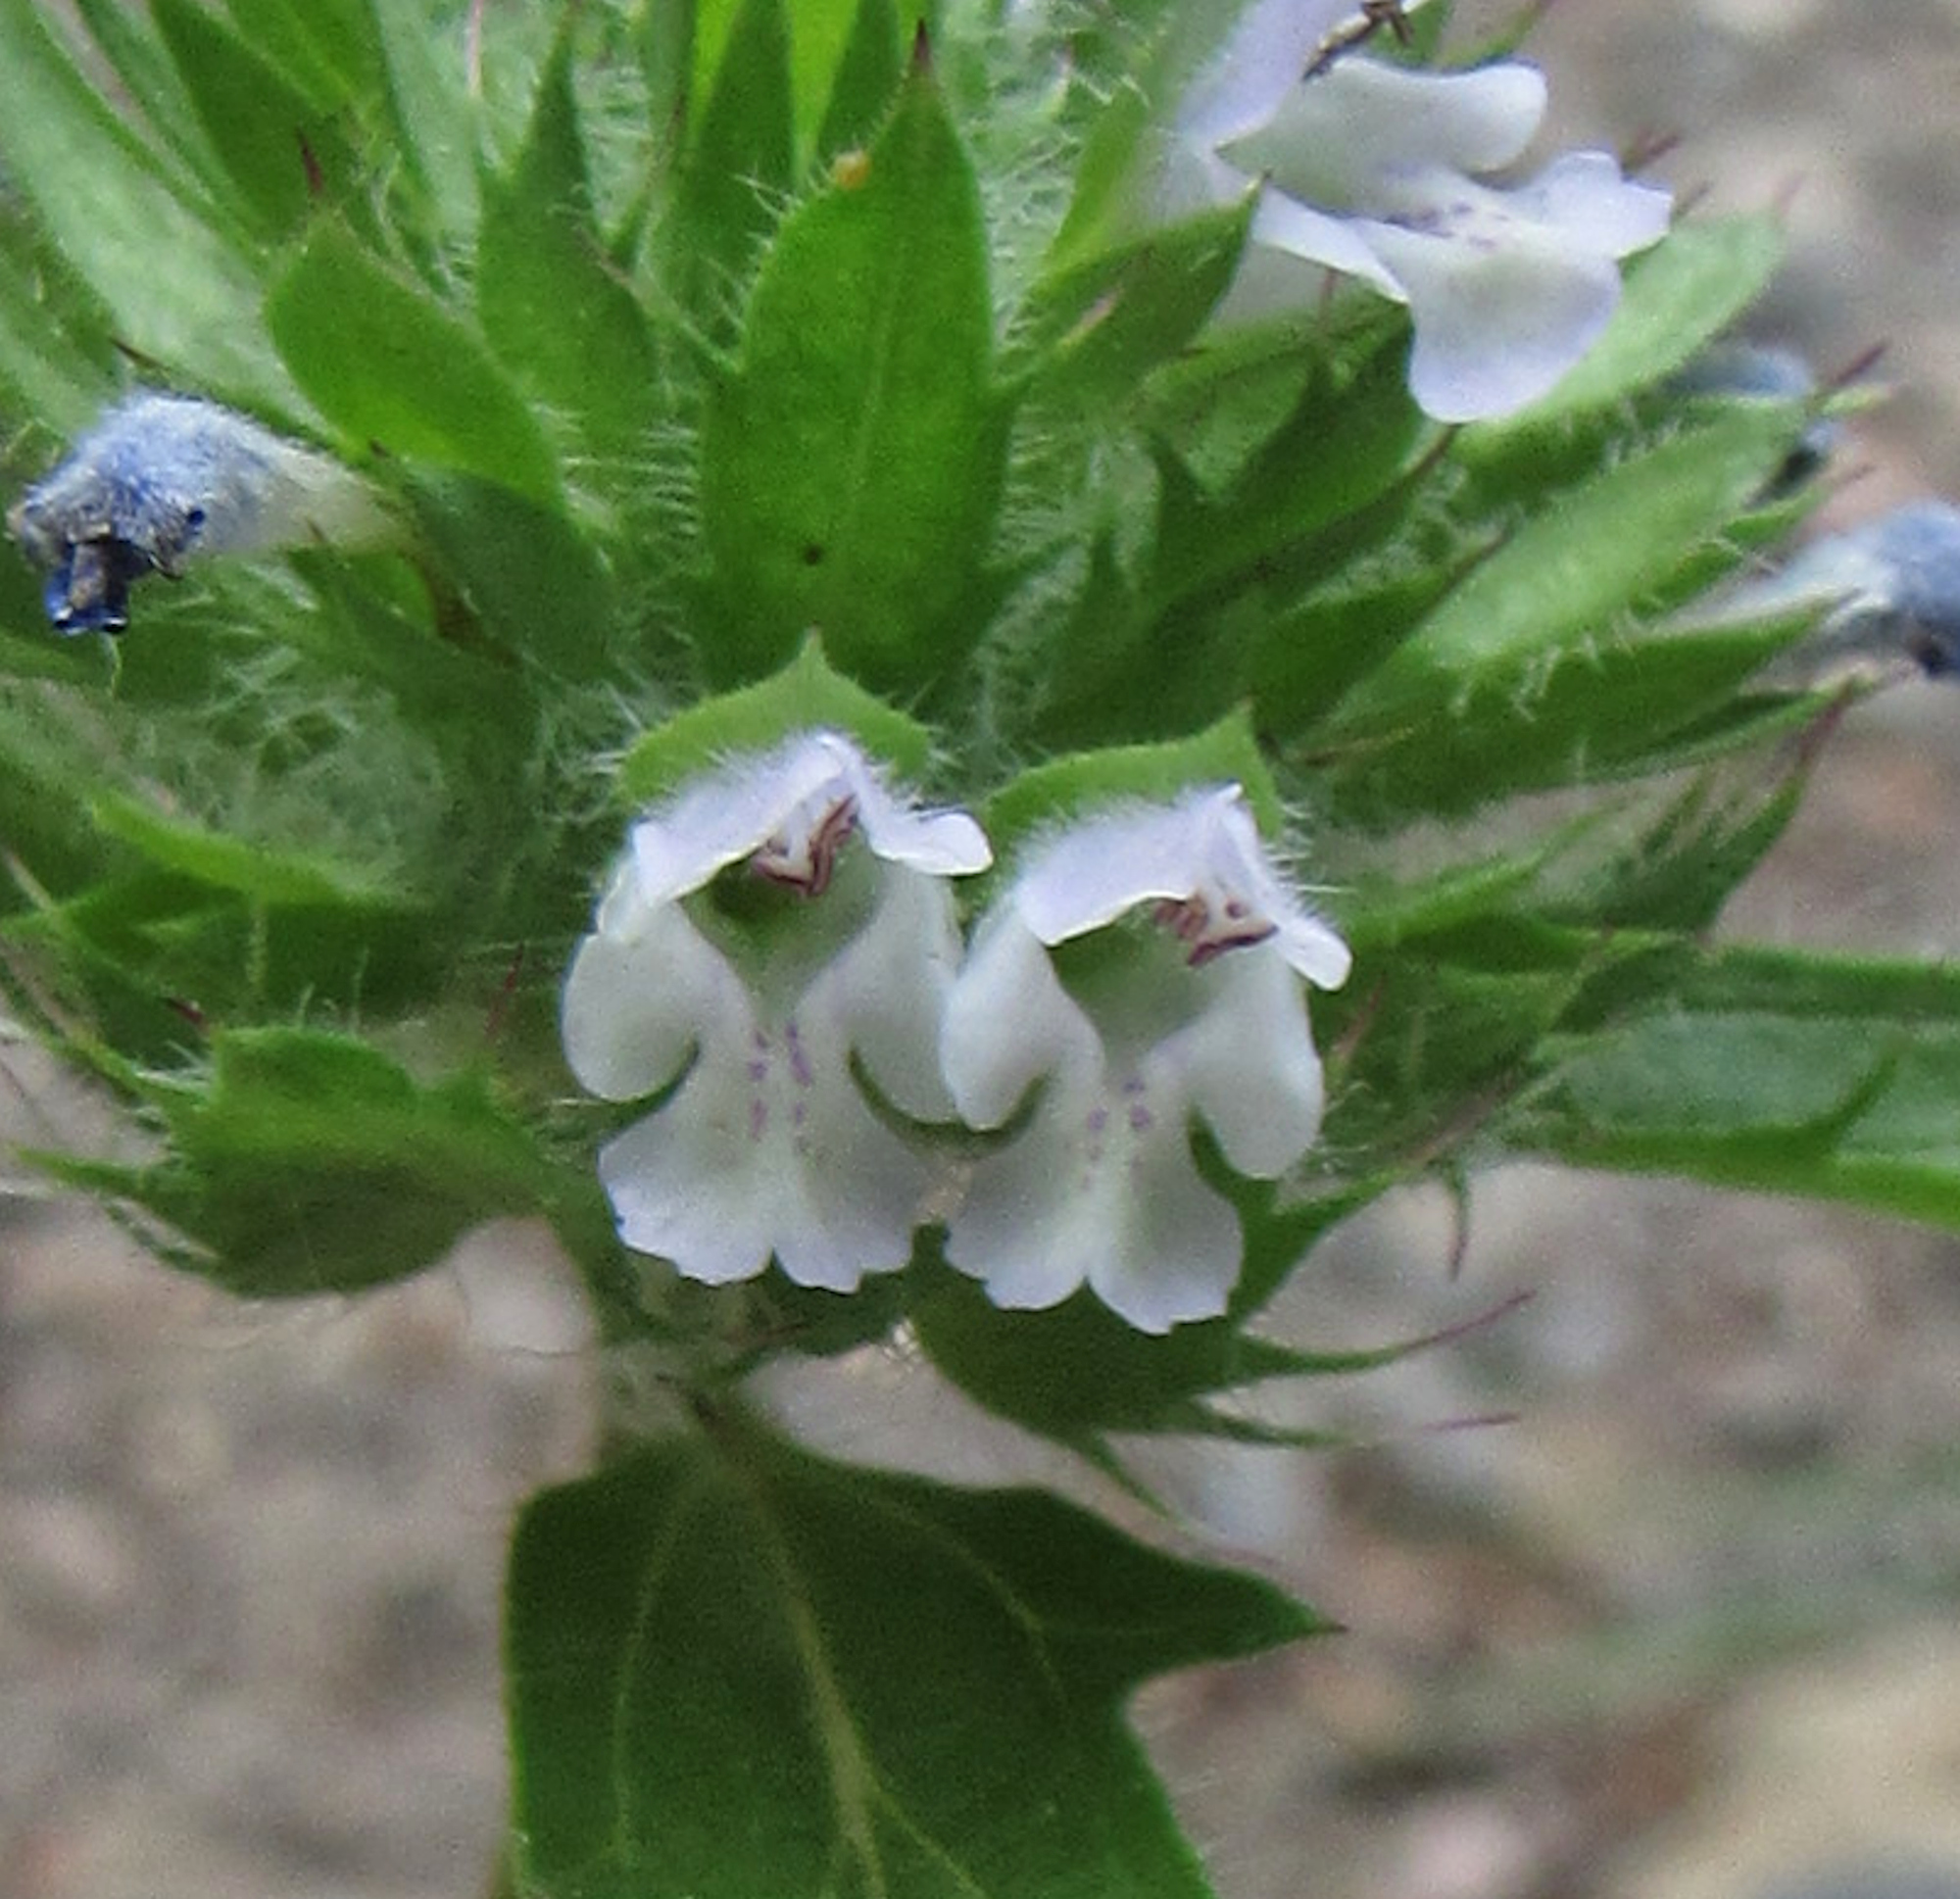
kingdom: Plantae
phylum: Tracheophyta
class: Magnoliopsida
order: Lamiales
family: Lamiaceae
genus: Dracocephalum
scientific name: Dracocephalum parviflorum
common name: American dragonhead
